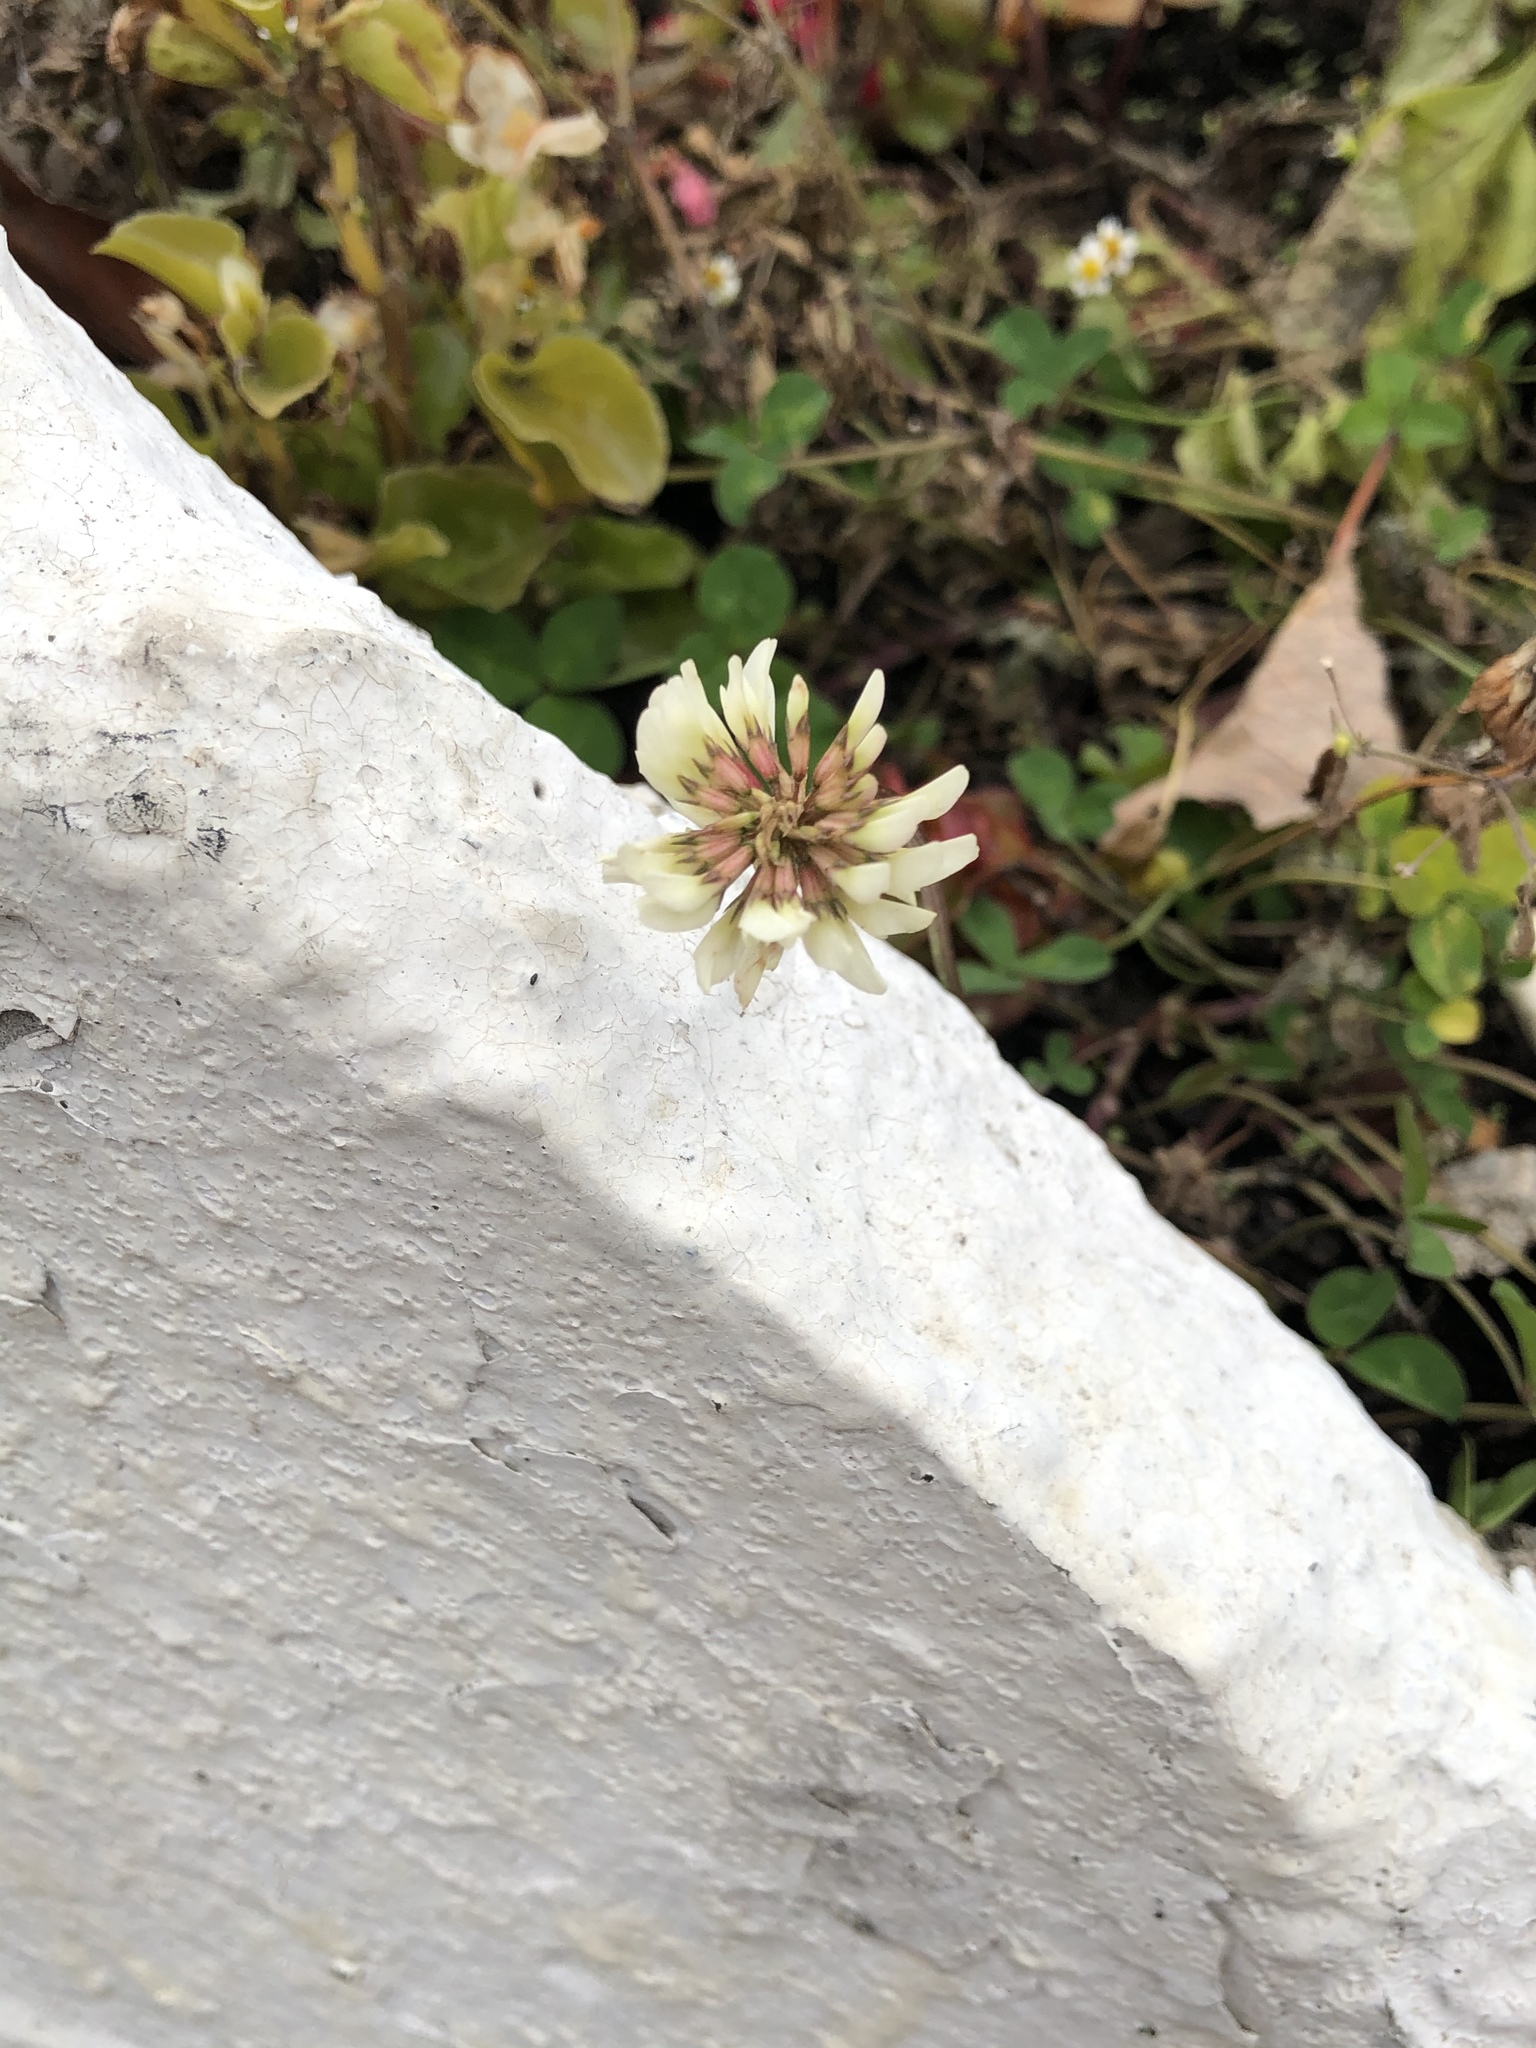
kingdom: Plantae
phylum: Tracheophyta
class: Magnoliopsida
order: Fabales
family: Fabaceae
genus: Trifolium
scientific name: Trifolium repens
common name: White clover
